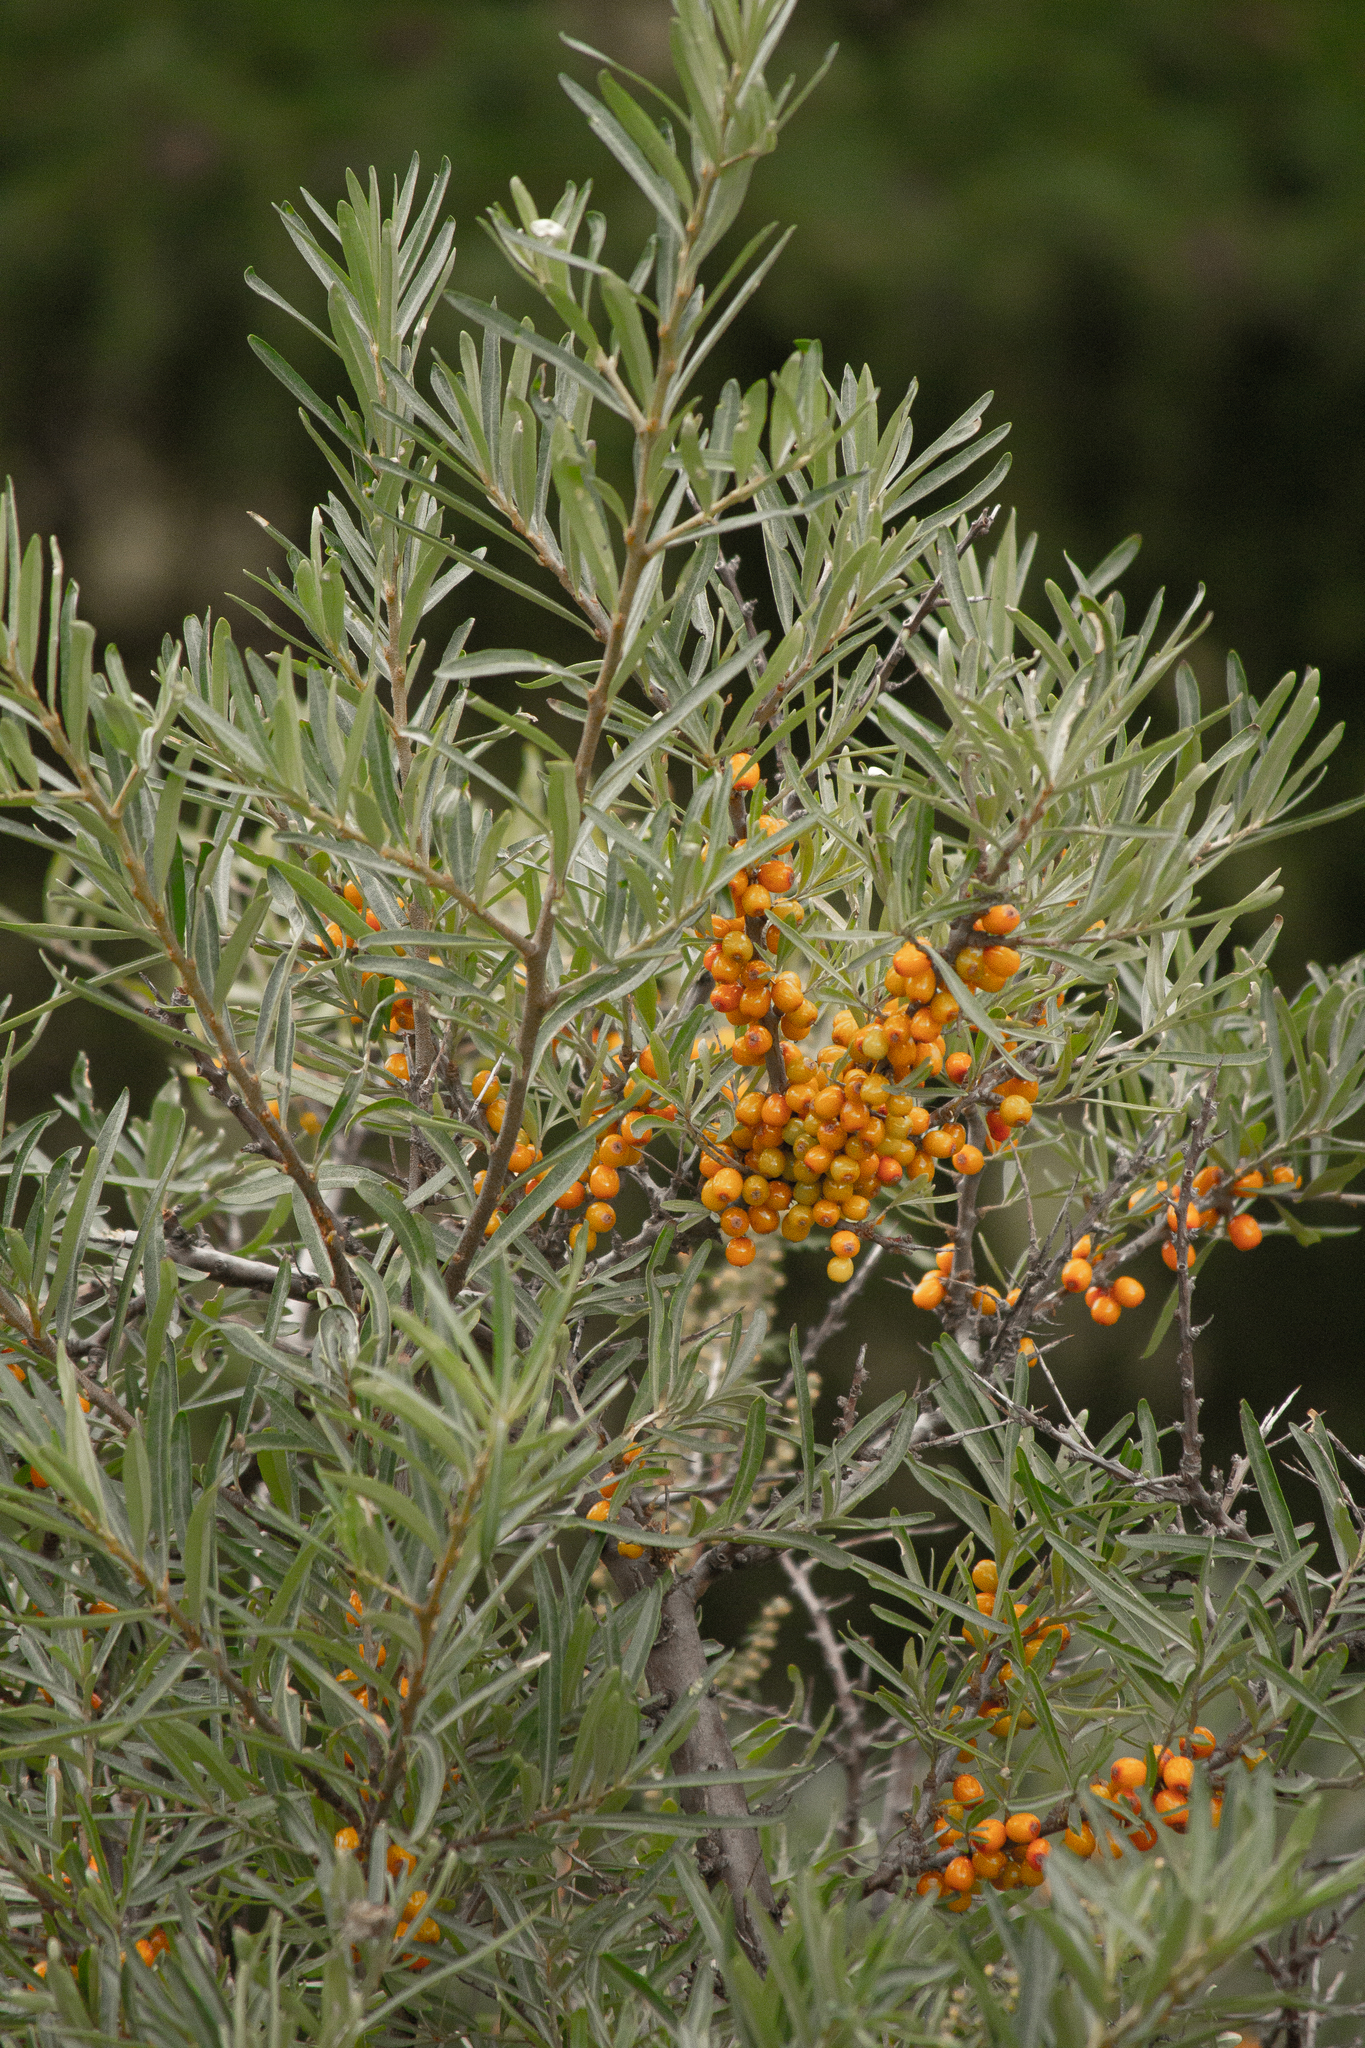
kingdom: Plantae
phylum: Tracheophyta
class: Magnoliopsida
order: Rosales
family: Elaeagnaceae
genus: Hippophae
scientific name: Hippophae rhamnoides
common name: Sea-buckthorn
